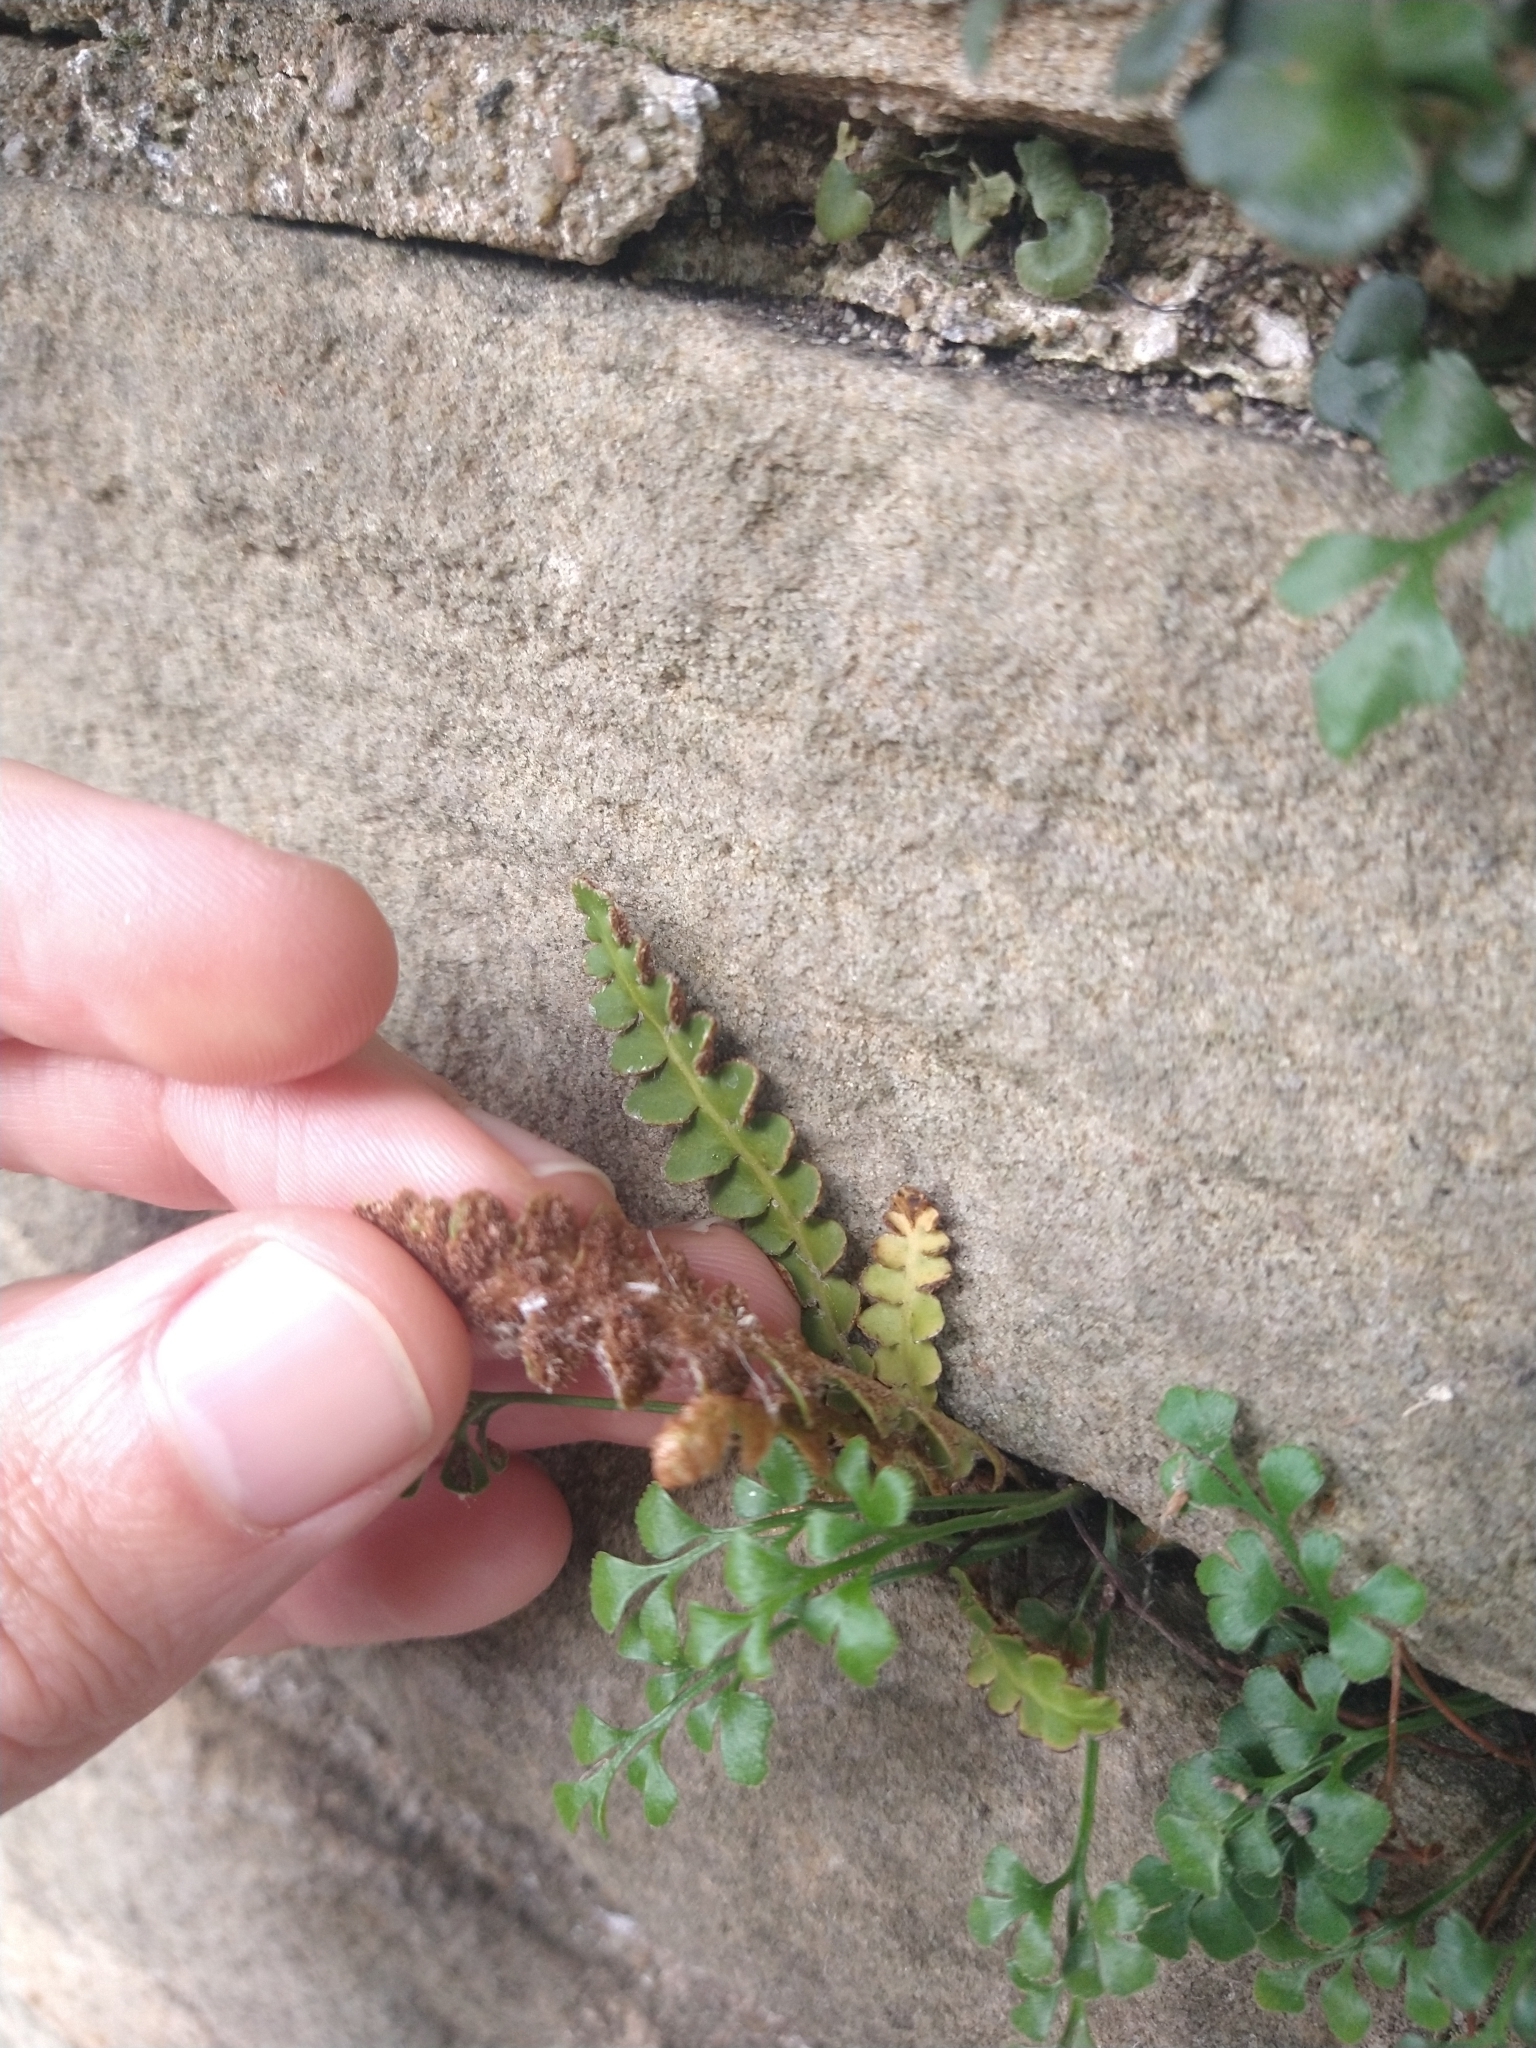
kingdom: Plantae
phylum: Tracheophyta
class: Polypodiopsida
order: Polypodiales
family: Aspleniaceae
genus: Asplenium
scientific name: Asplenium ceterach
